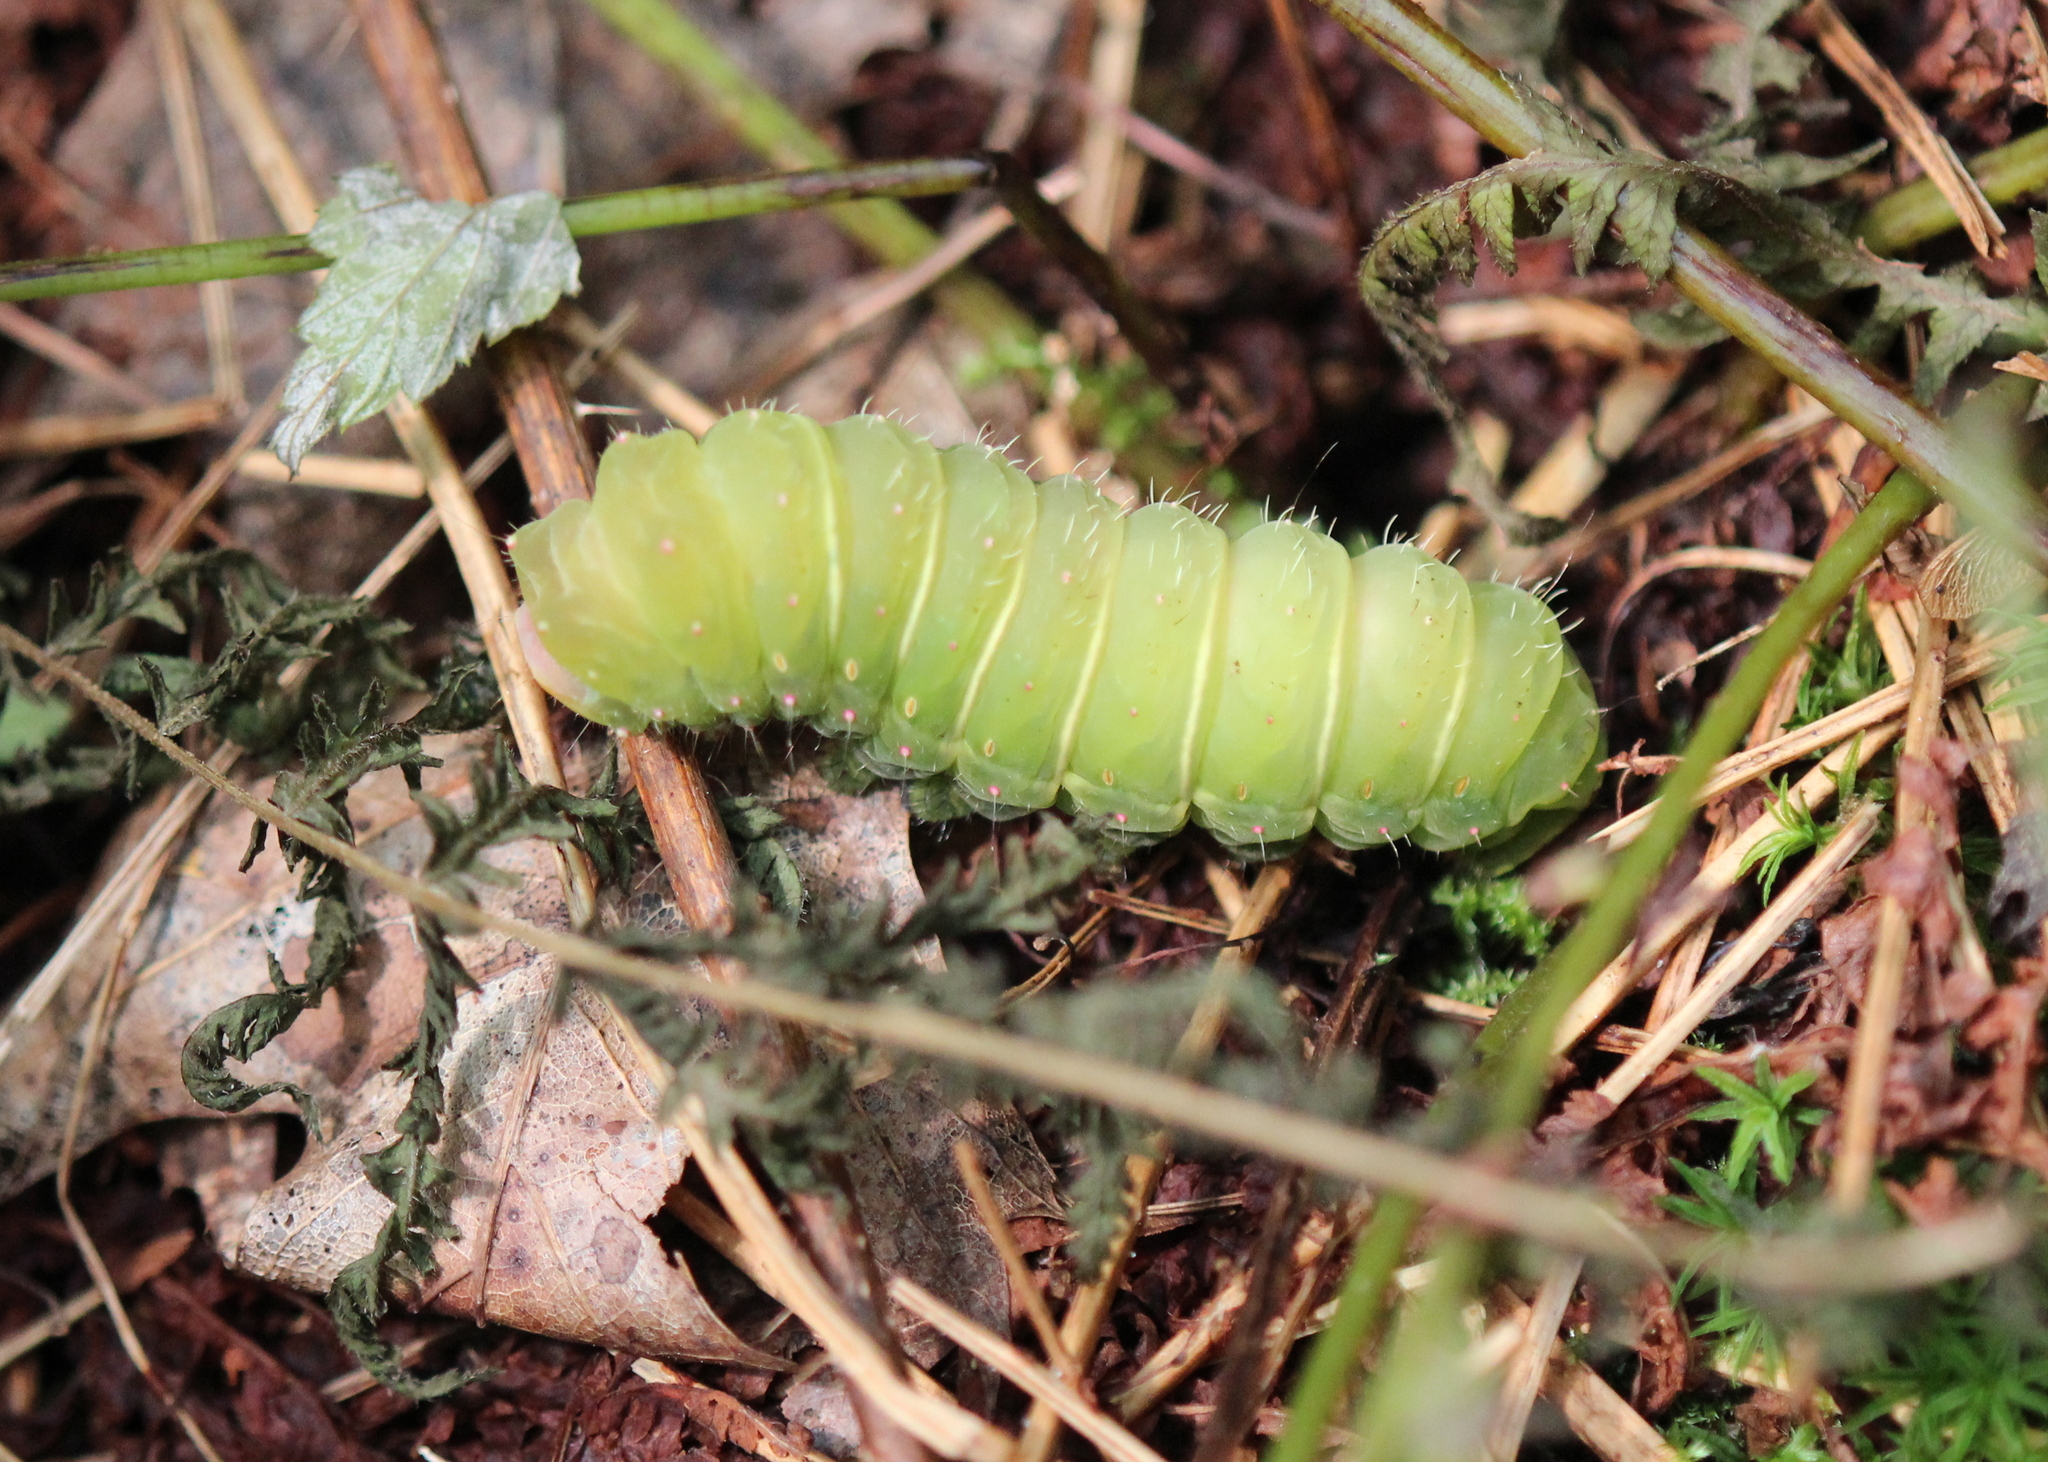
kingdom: Animalia
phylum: Arthropoda
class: Insecta
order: Lepidoptera
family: Saturniidae
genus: Actias
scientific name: Actias luna
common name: Luna moth
